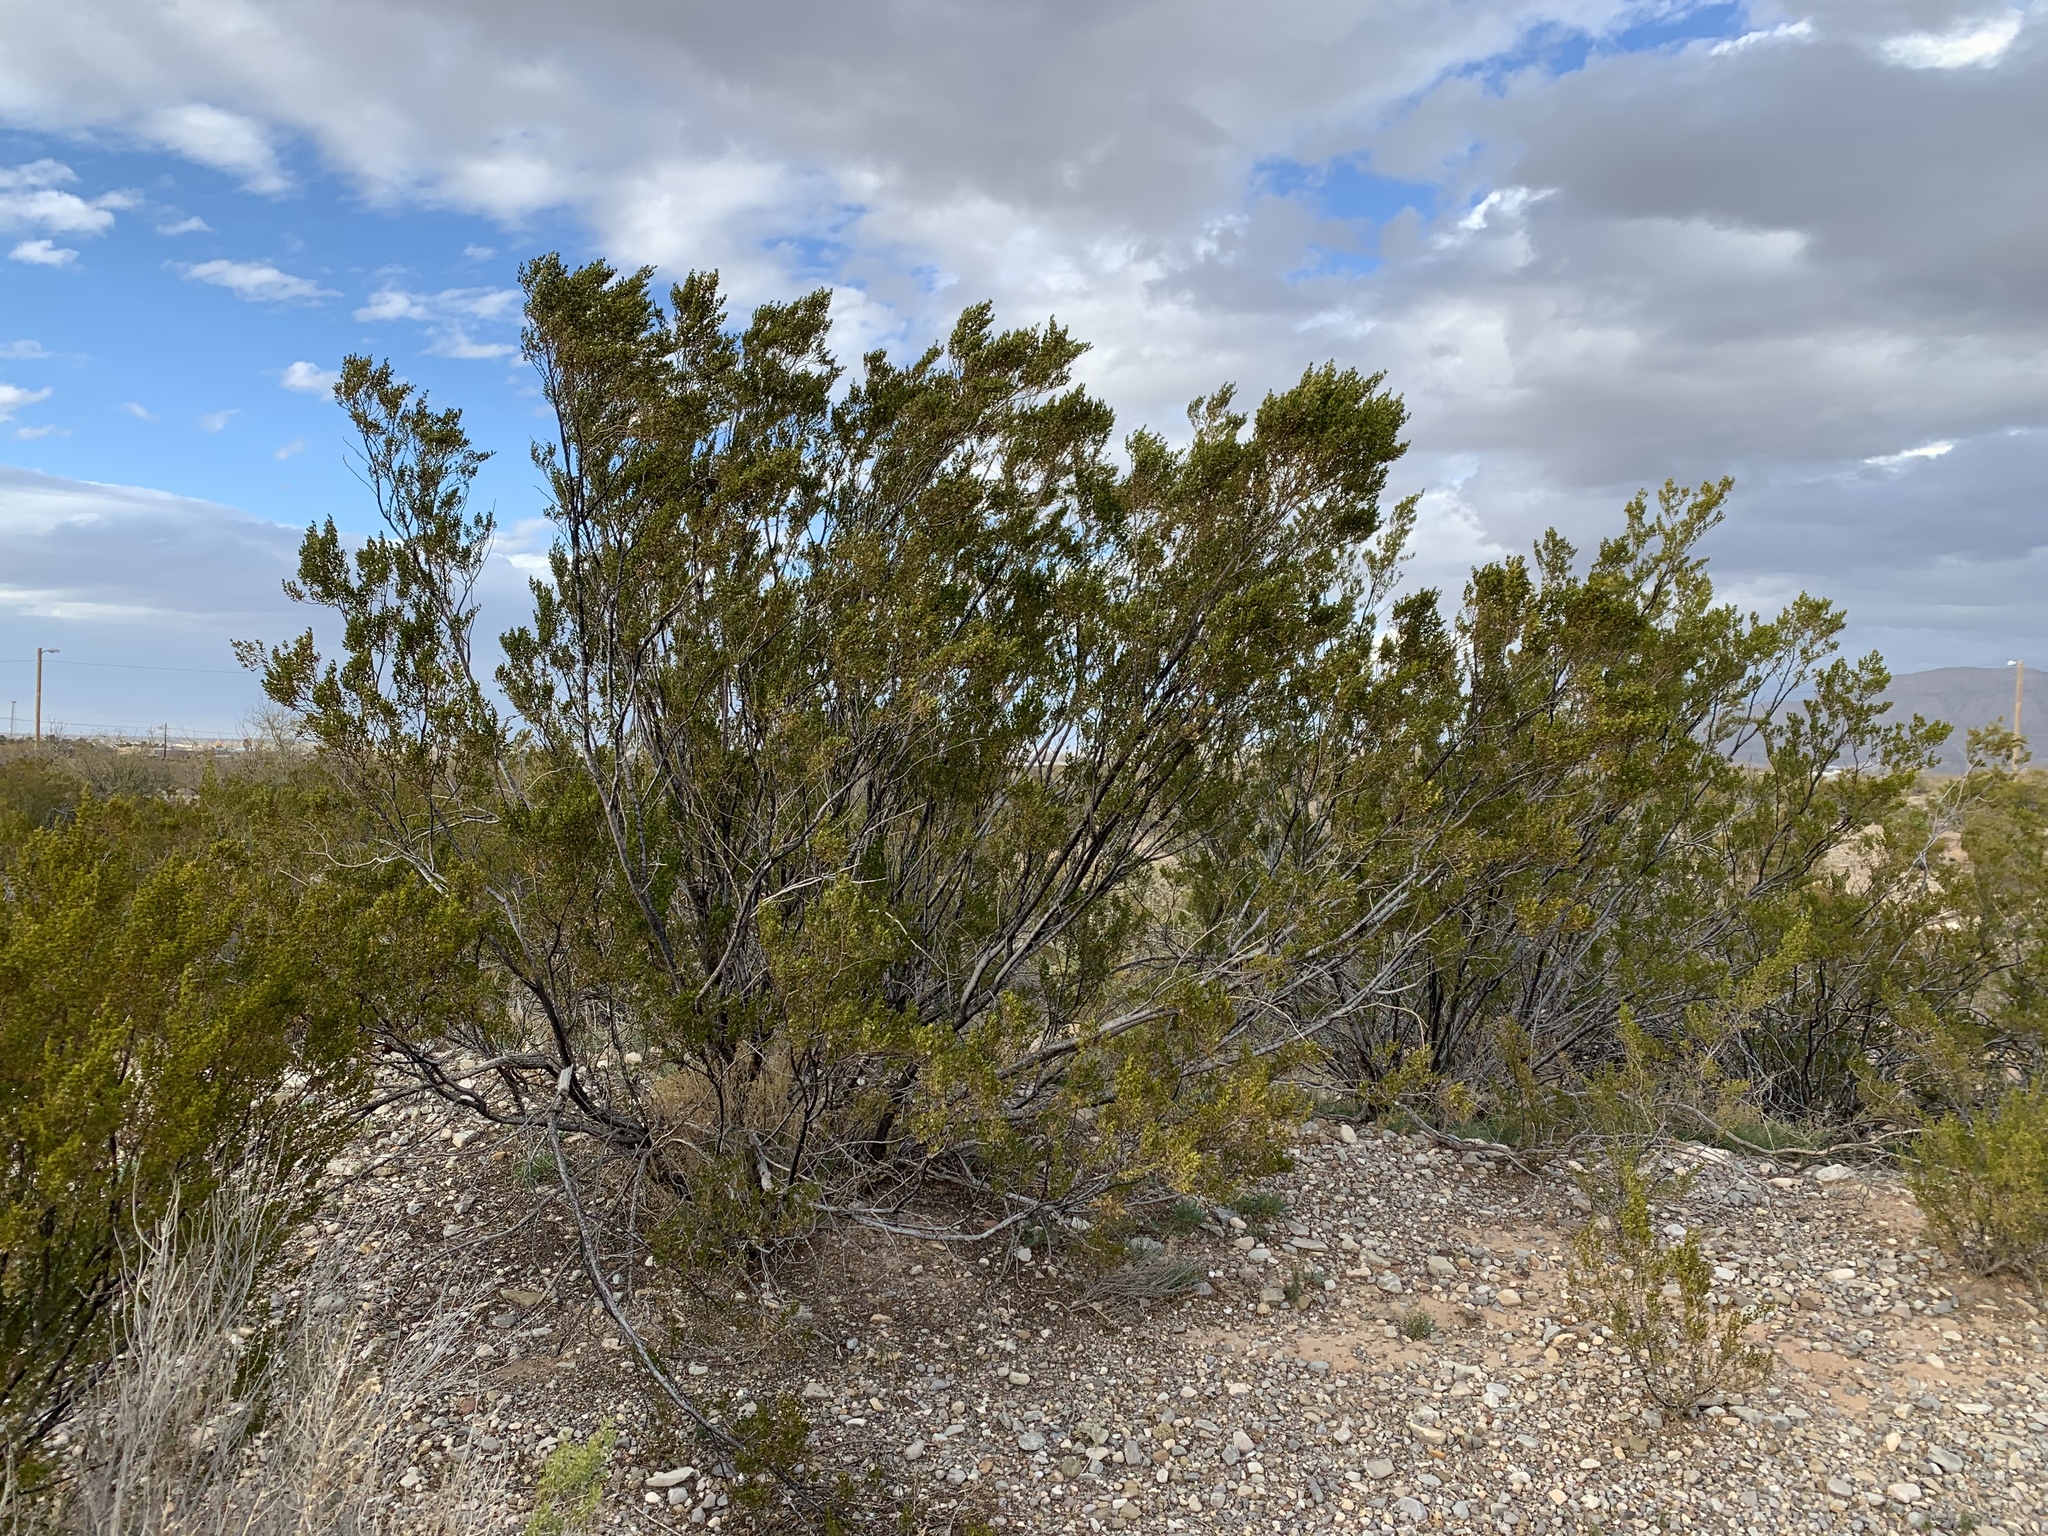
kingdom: Plantae
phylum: Tracheophyta
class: Magnoliopsida
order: Zygophyllales
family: Zygophyllaceae
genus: Larrea
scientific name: Larrea tridentata
